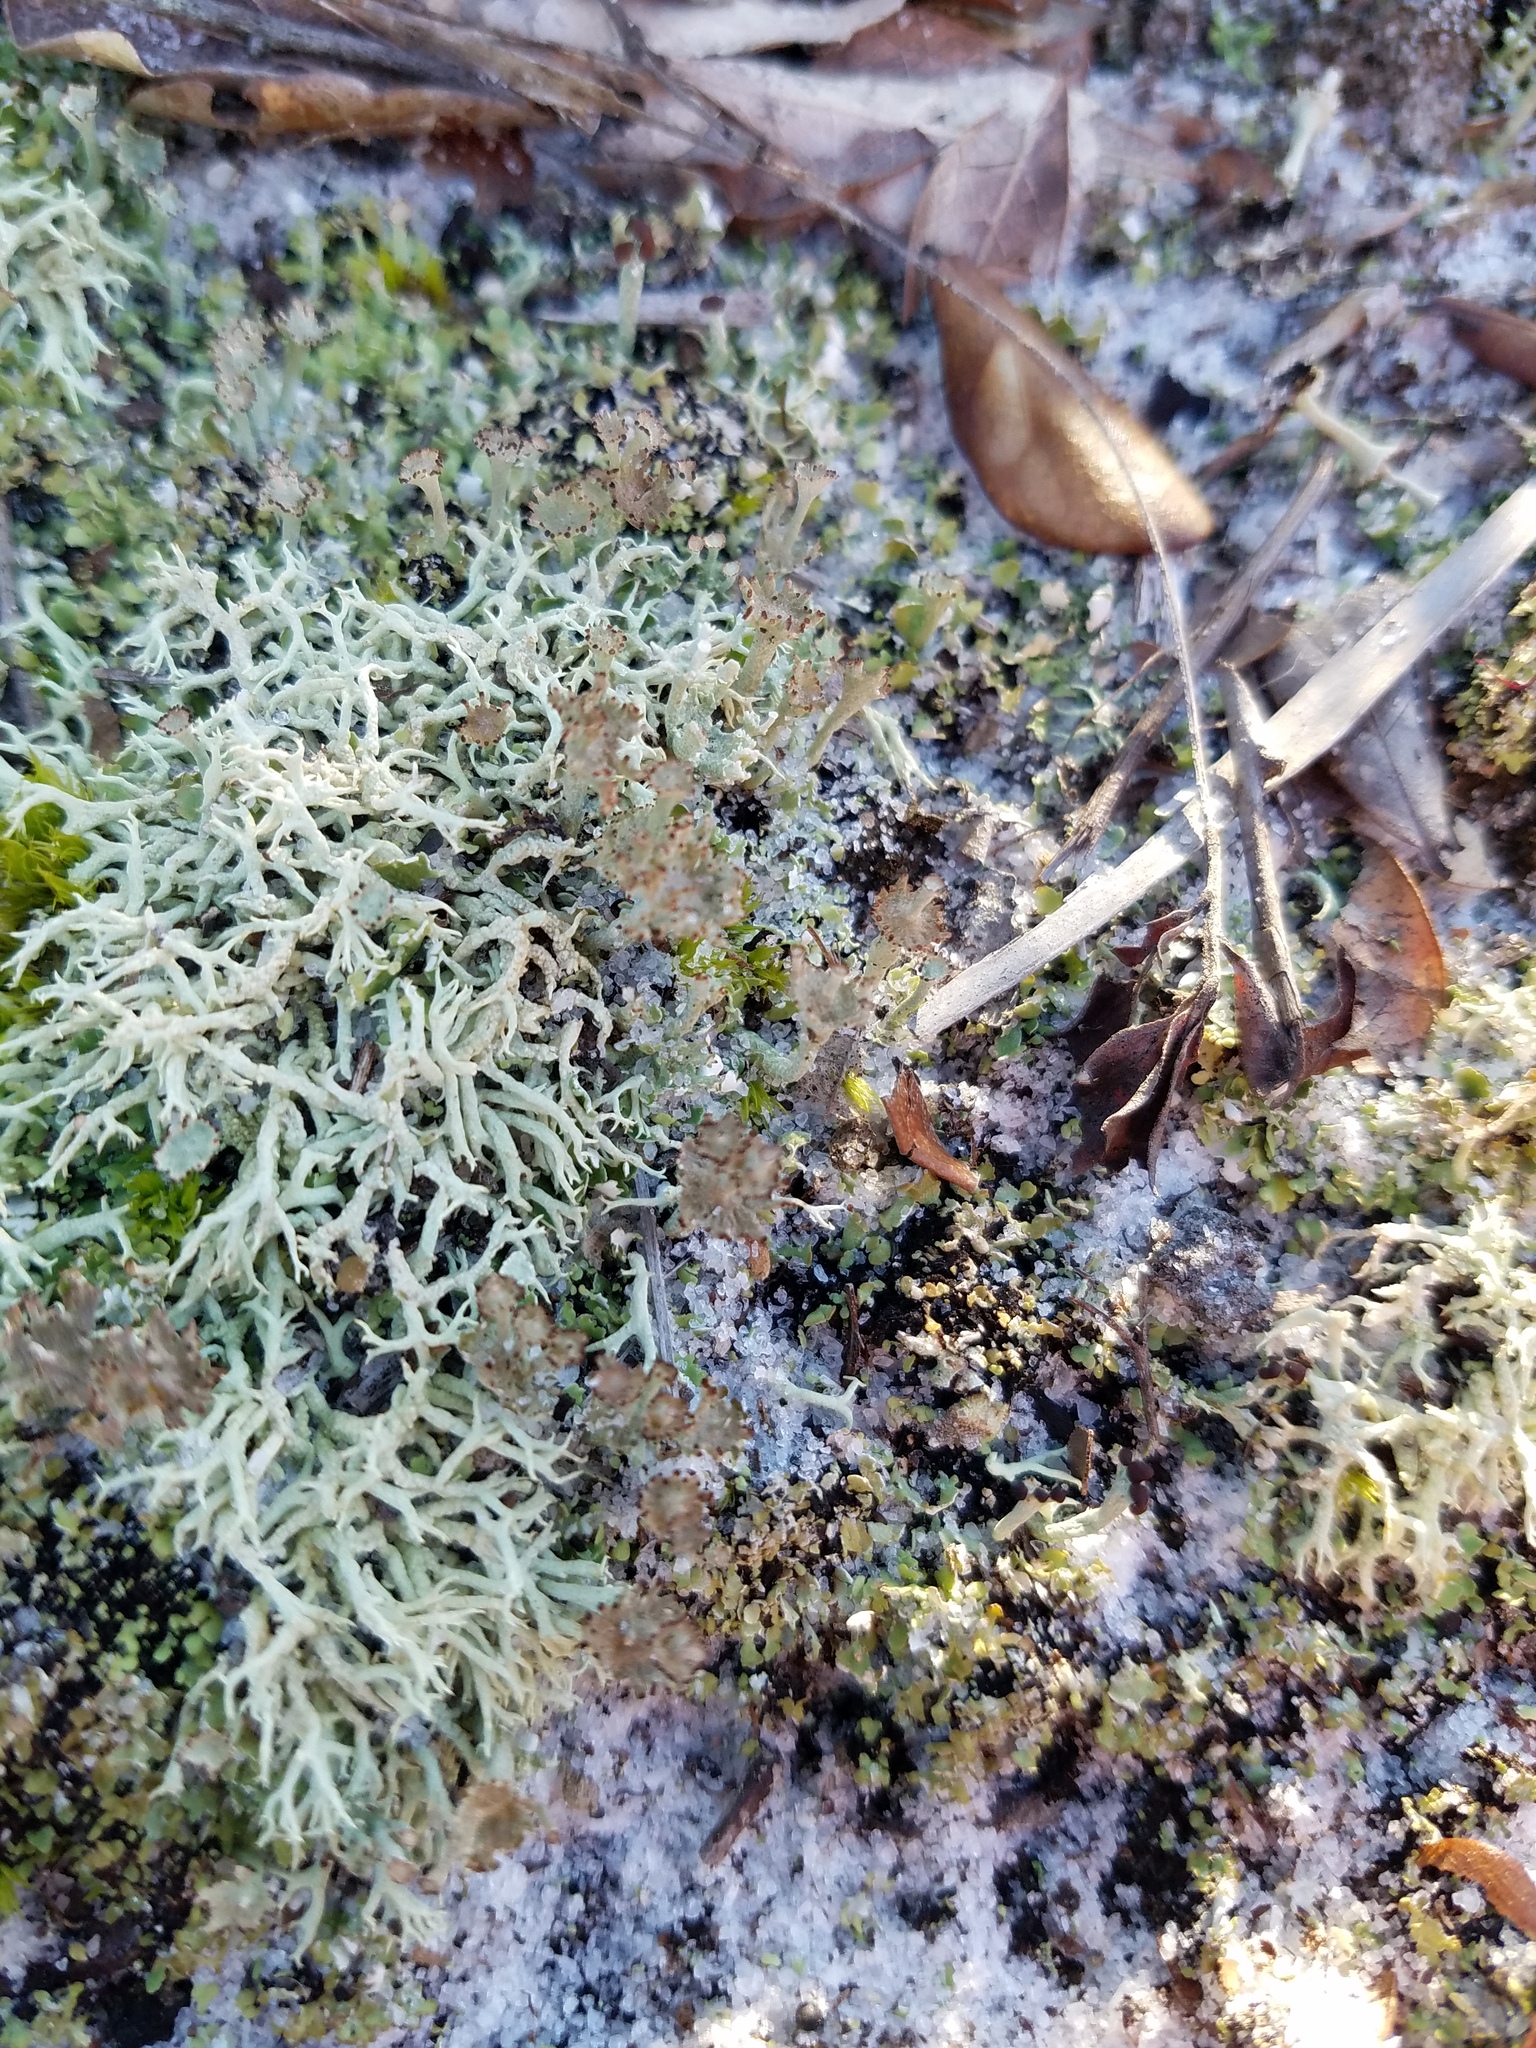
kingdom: Fungi
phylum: Ascomycota
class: Lecanoromycetes
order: Lecanorales
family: Cladoniaceae
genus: Cladonia
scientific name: Cladonia rappii
